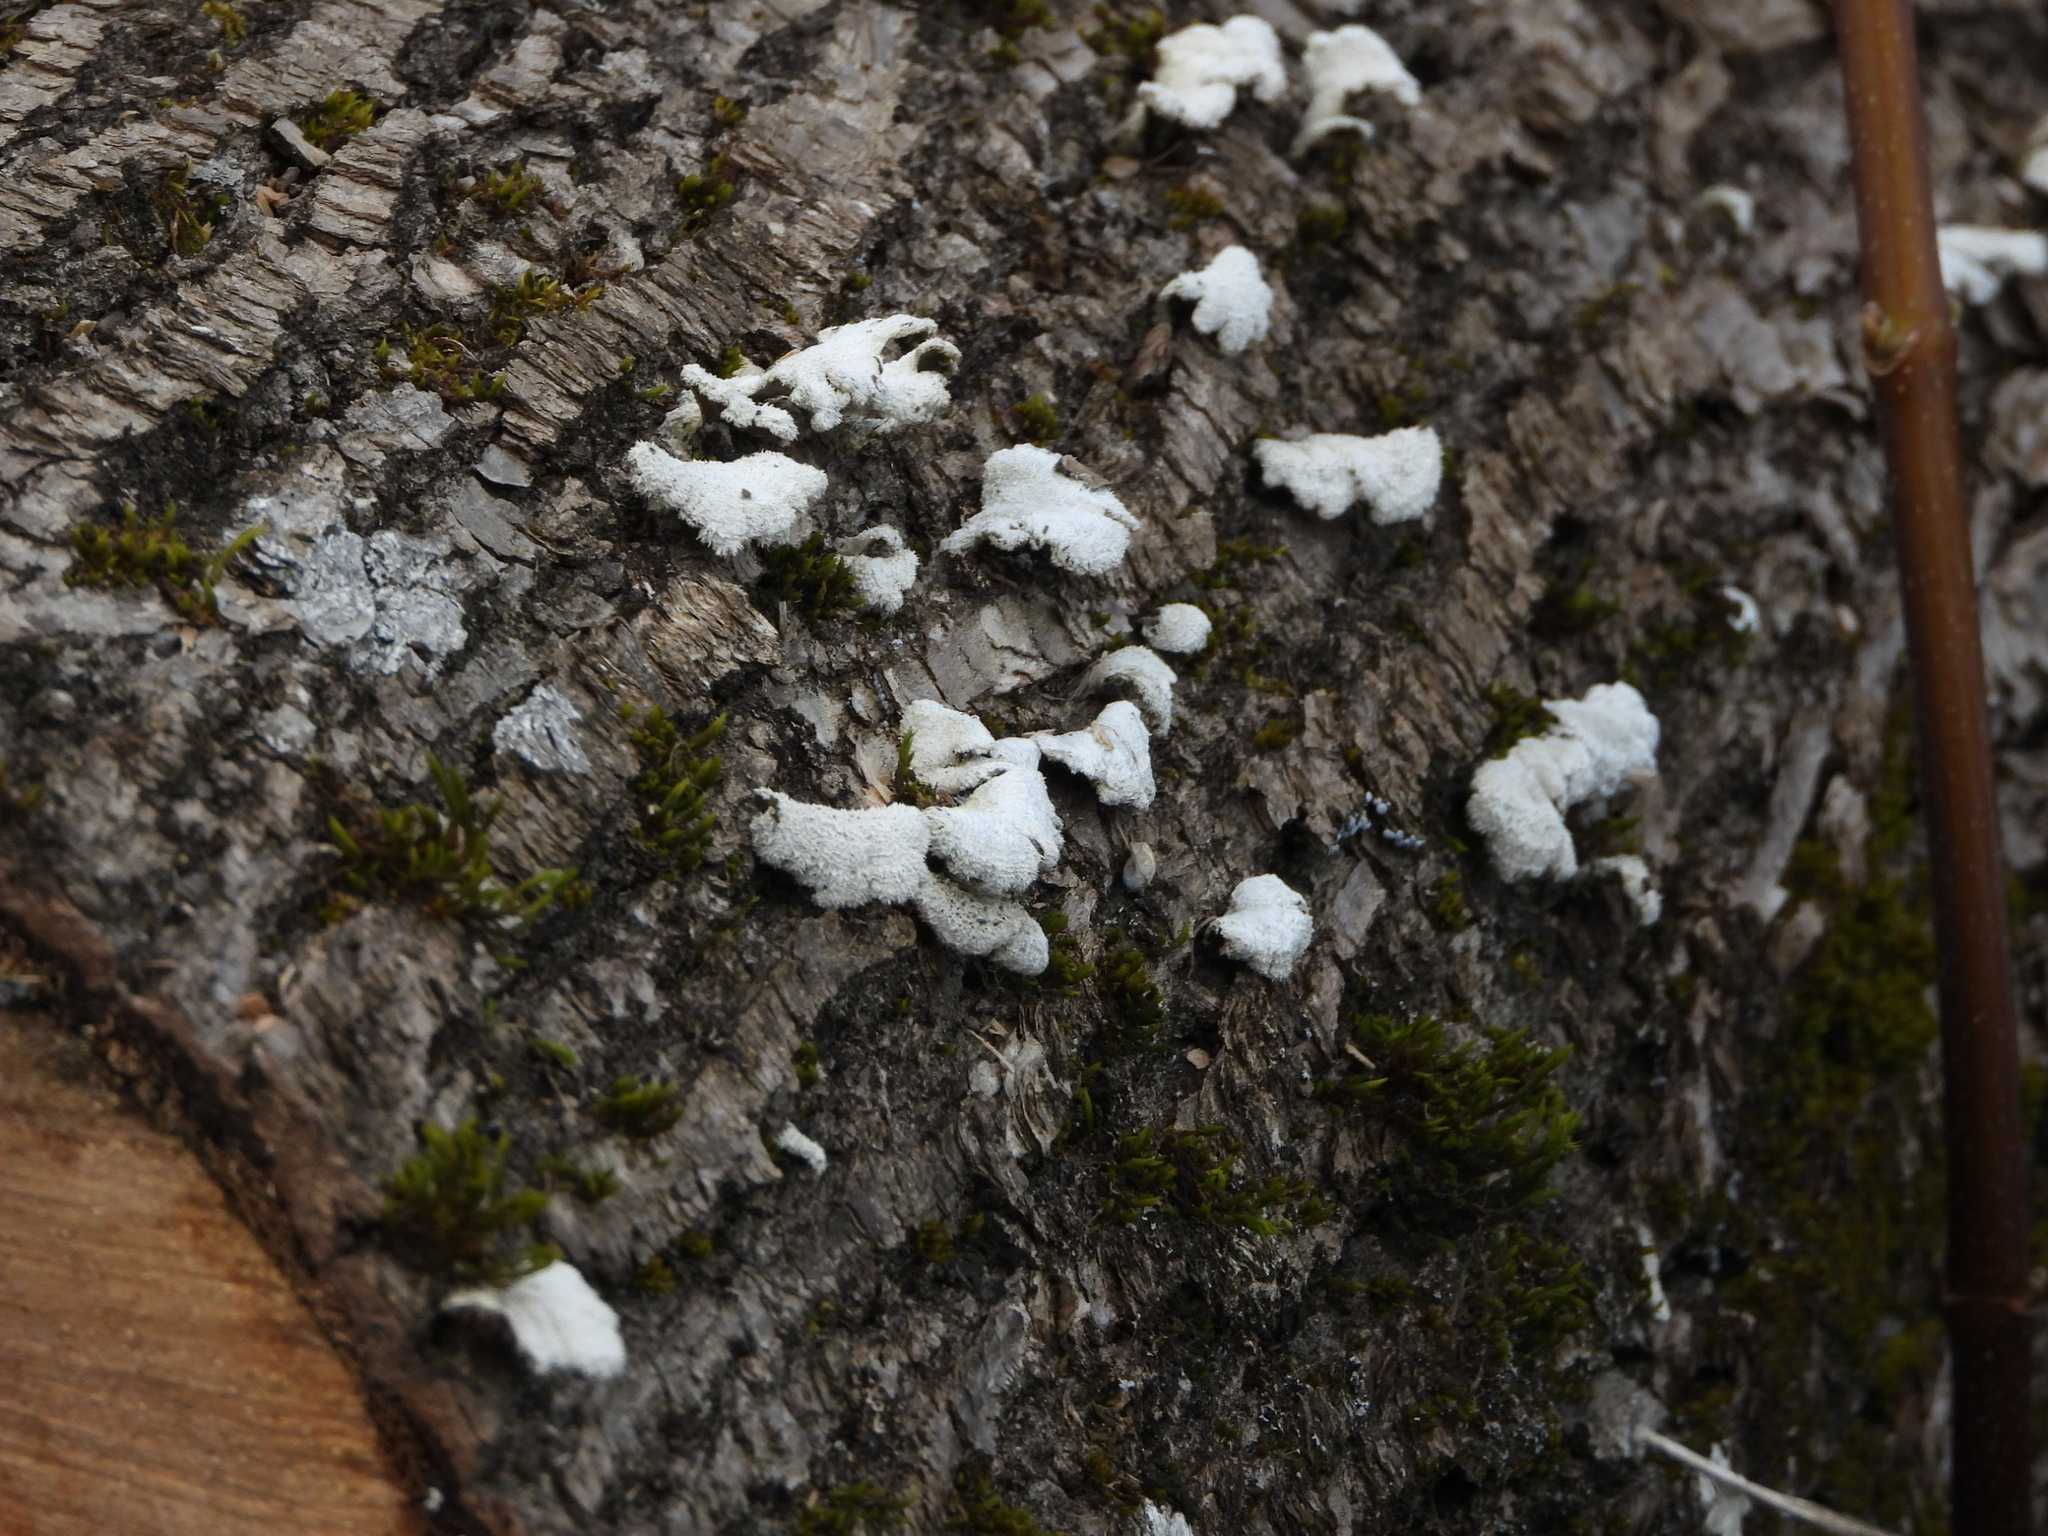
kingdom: Fungi
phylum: Basidiomycota
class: Agaricomycetes
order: Agaricales
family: Schizophyllaceae
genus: Schizophyllum
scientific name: Schizophyllum commune
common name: Common porecrust
